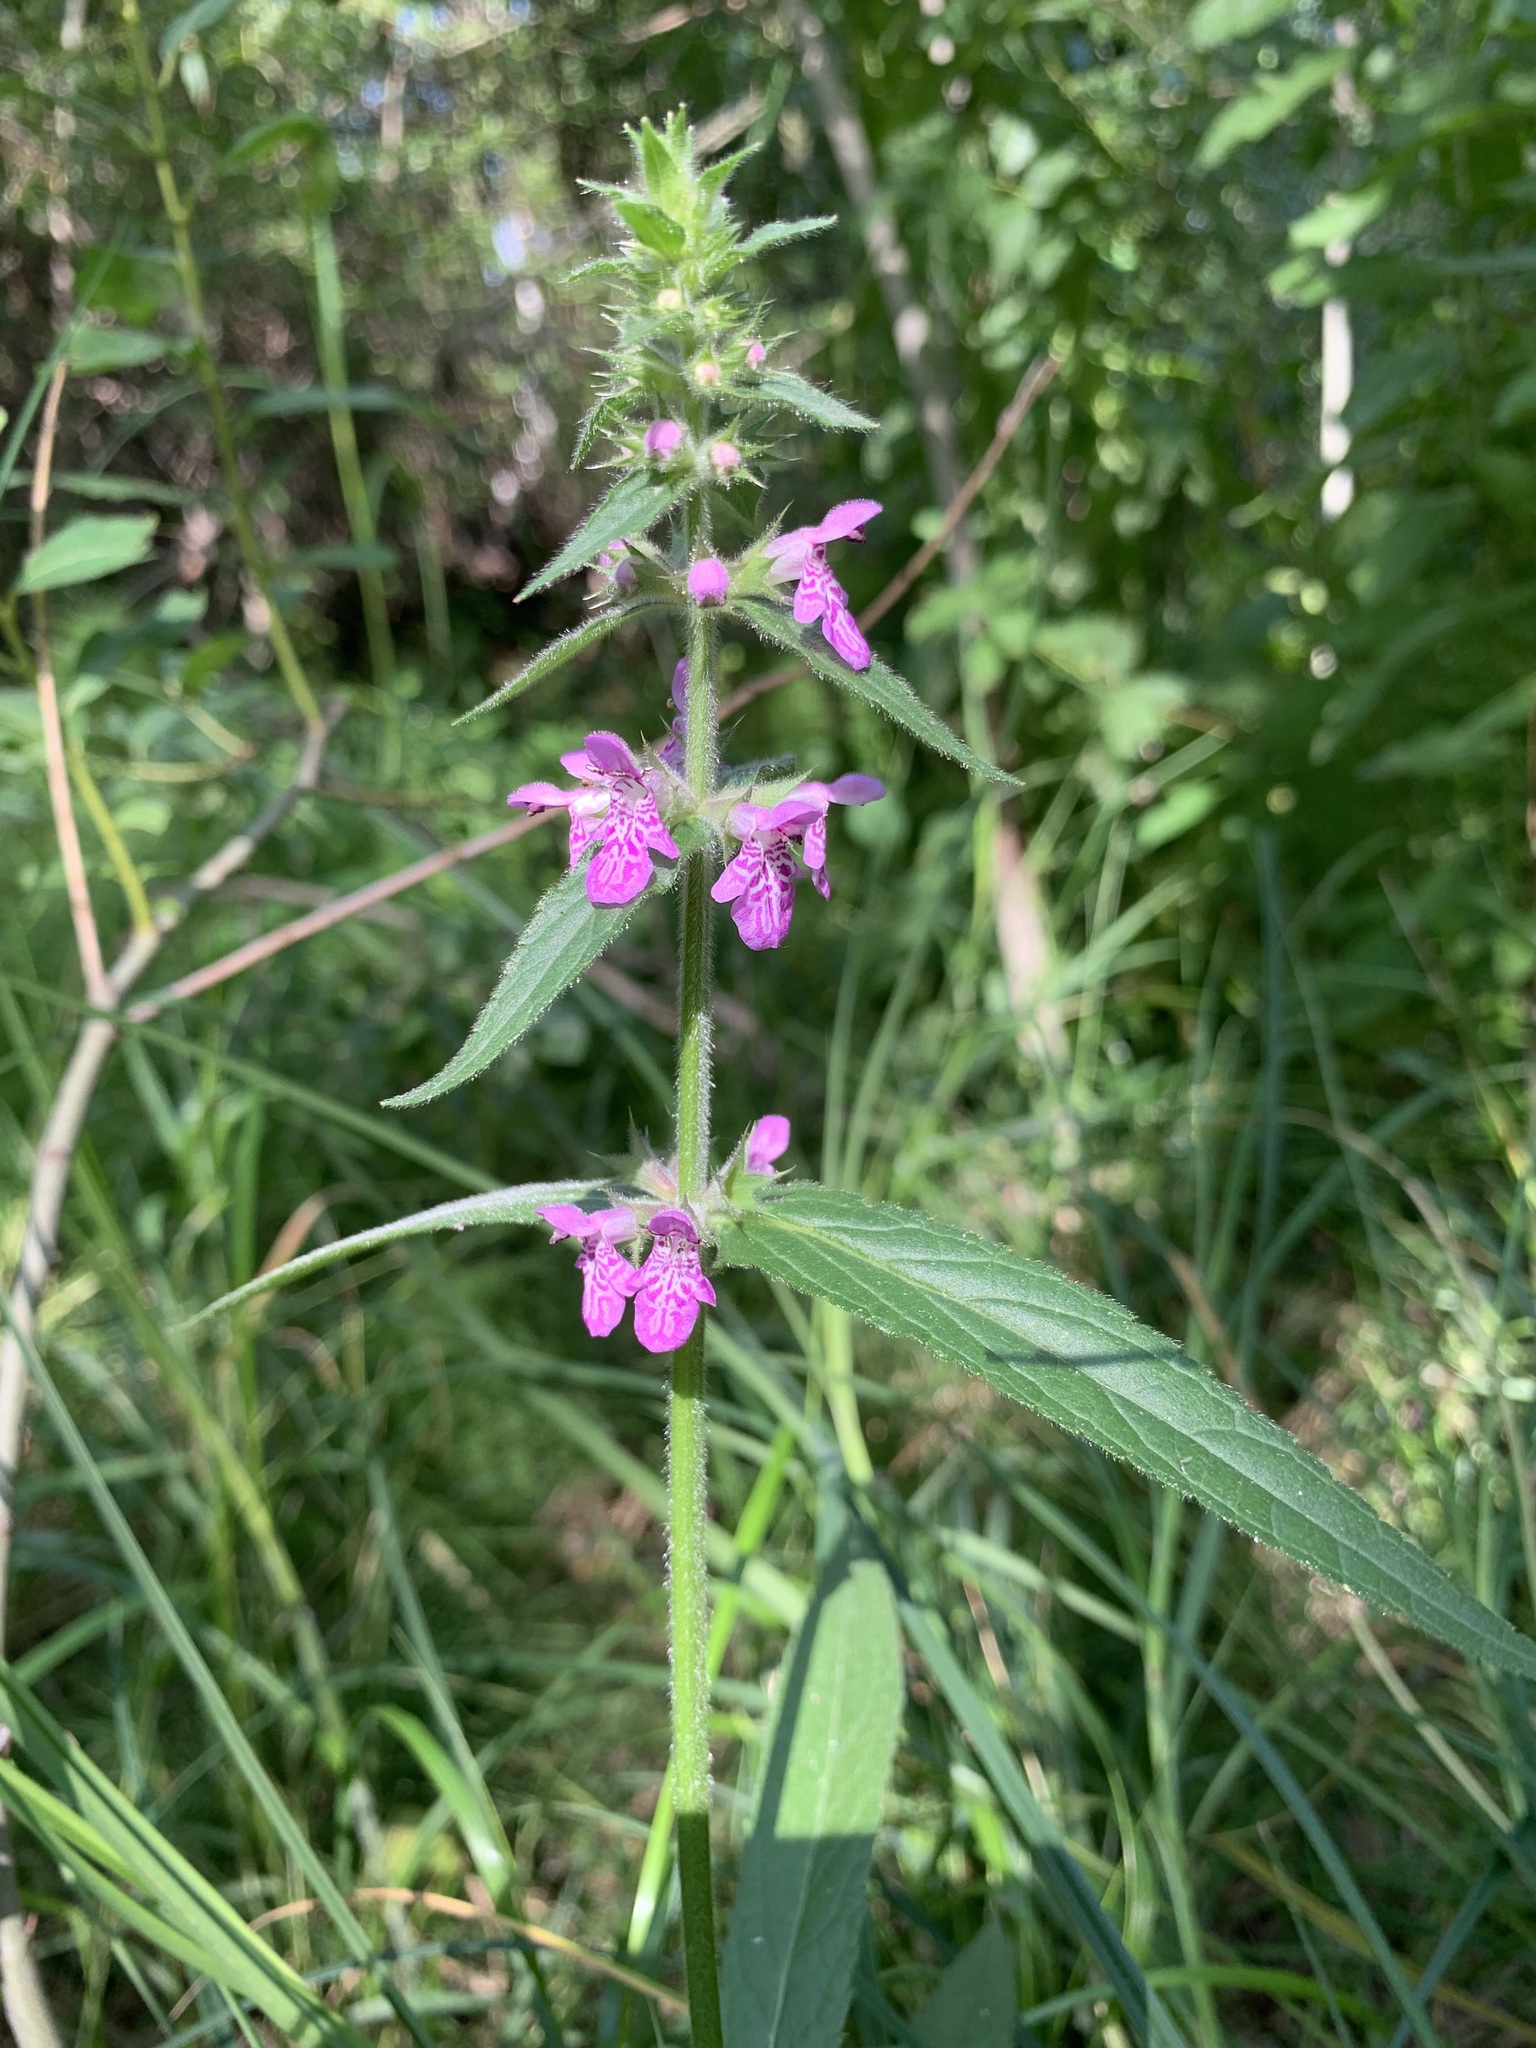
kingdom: Plantae
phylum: Tracheophyta
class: Magnoliopsida
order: Lamiales
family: Lamiaceae
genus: Stachys
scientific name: Stachys palustris
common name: Marsh woundwort
